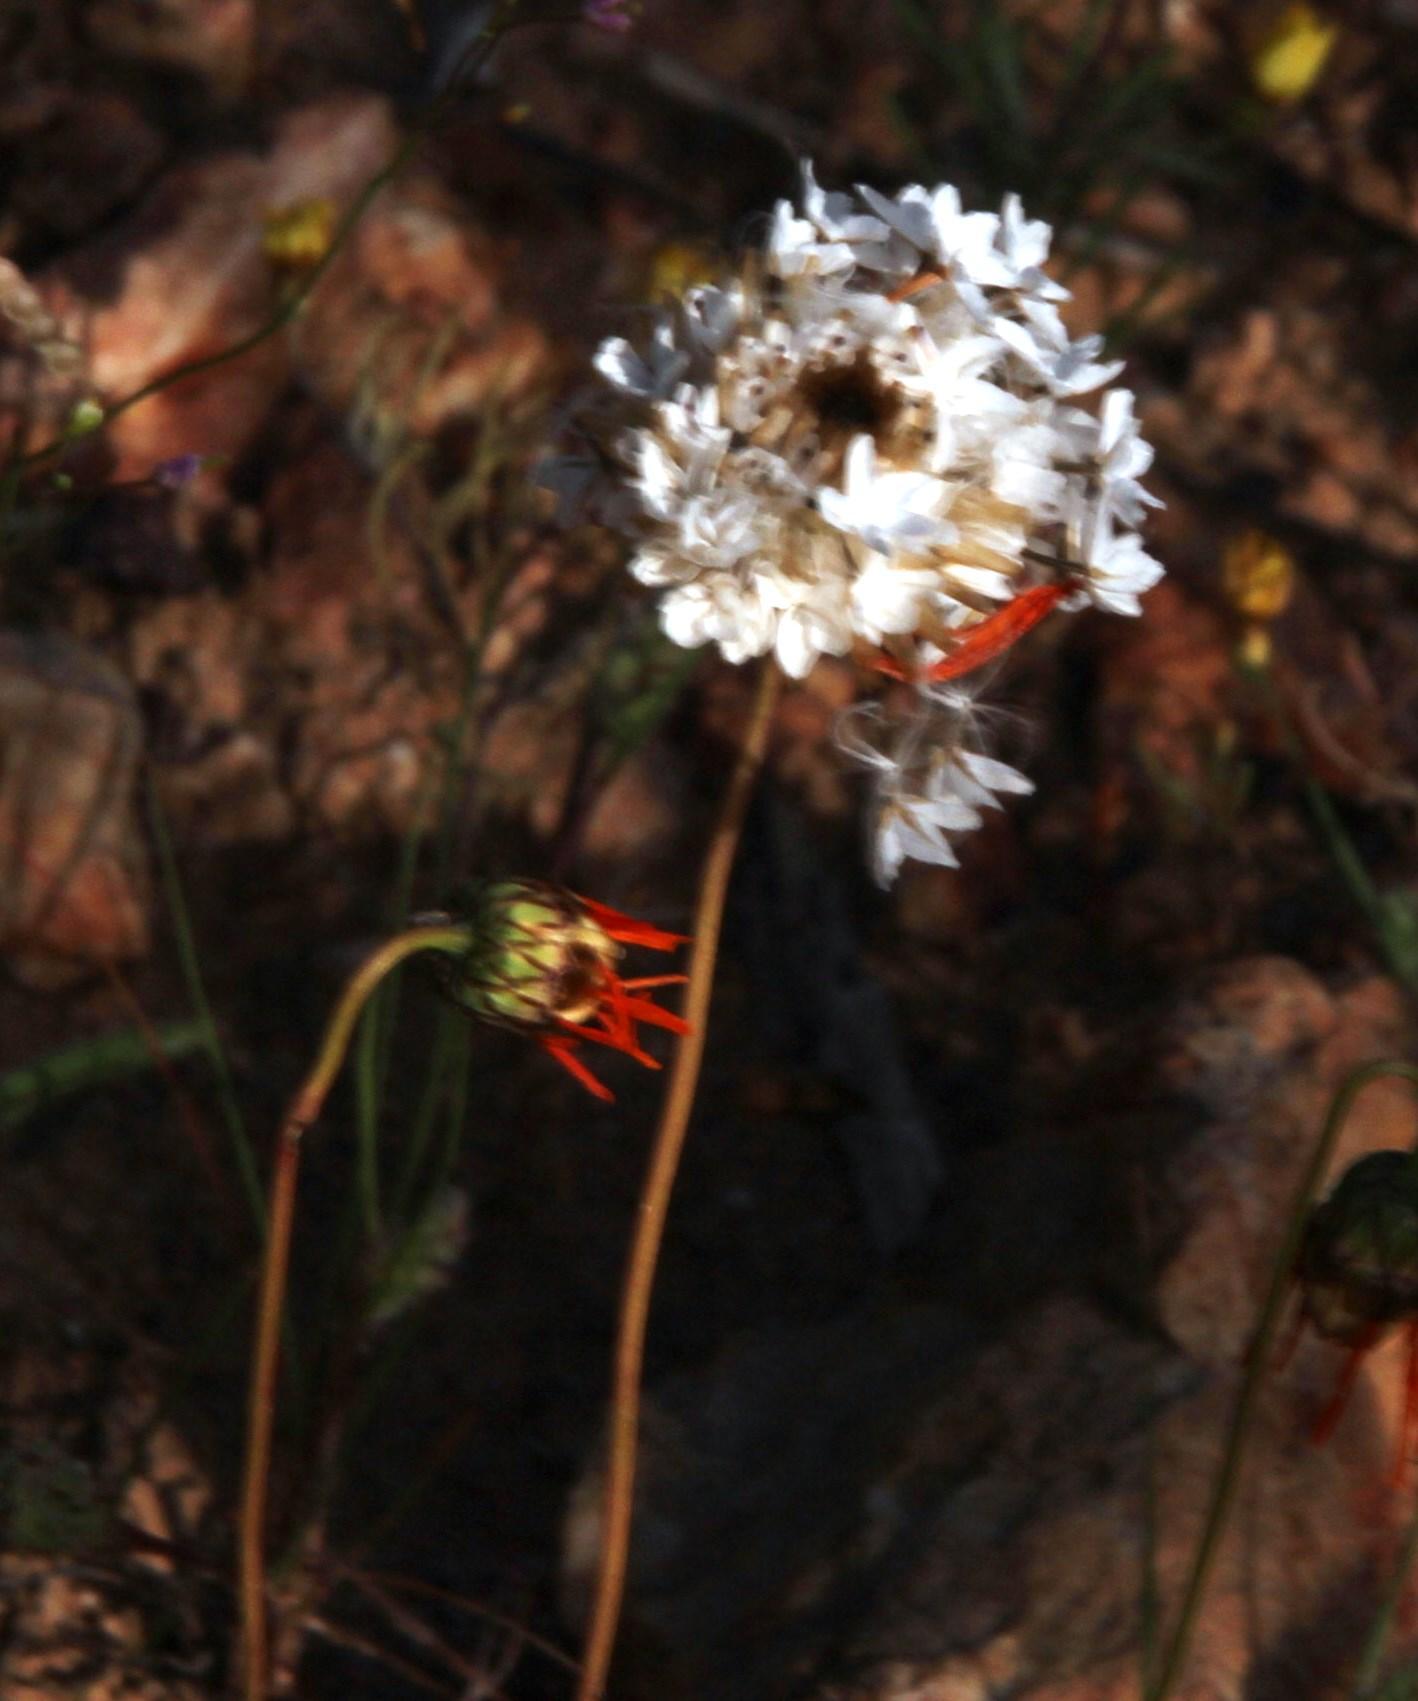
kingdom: Plantae
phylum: Tracheophyta
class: Magnoliopsida
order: Asterales
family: Asteraceae
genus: Ursinia
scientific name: Ursinia anthemoides
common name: Ursinia
